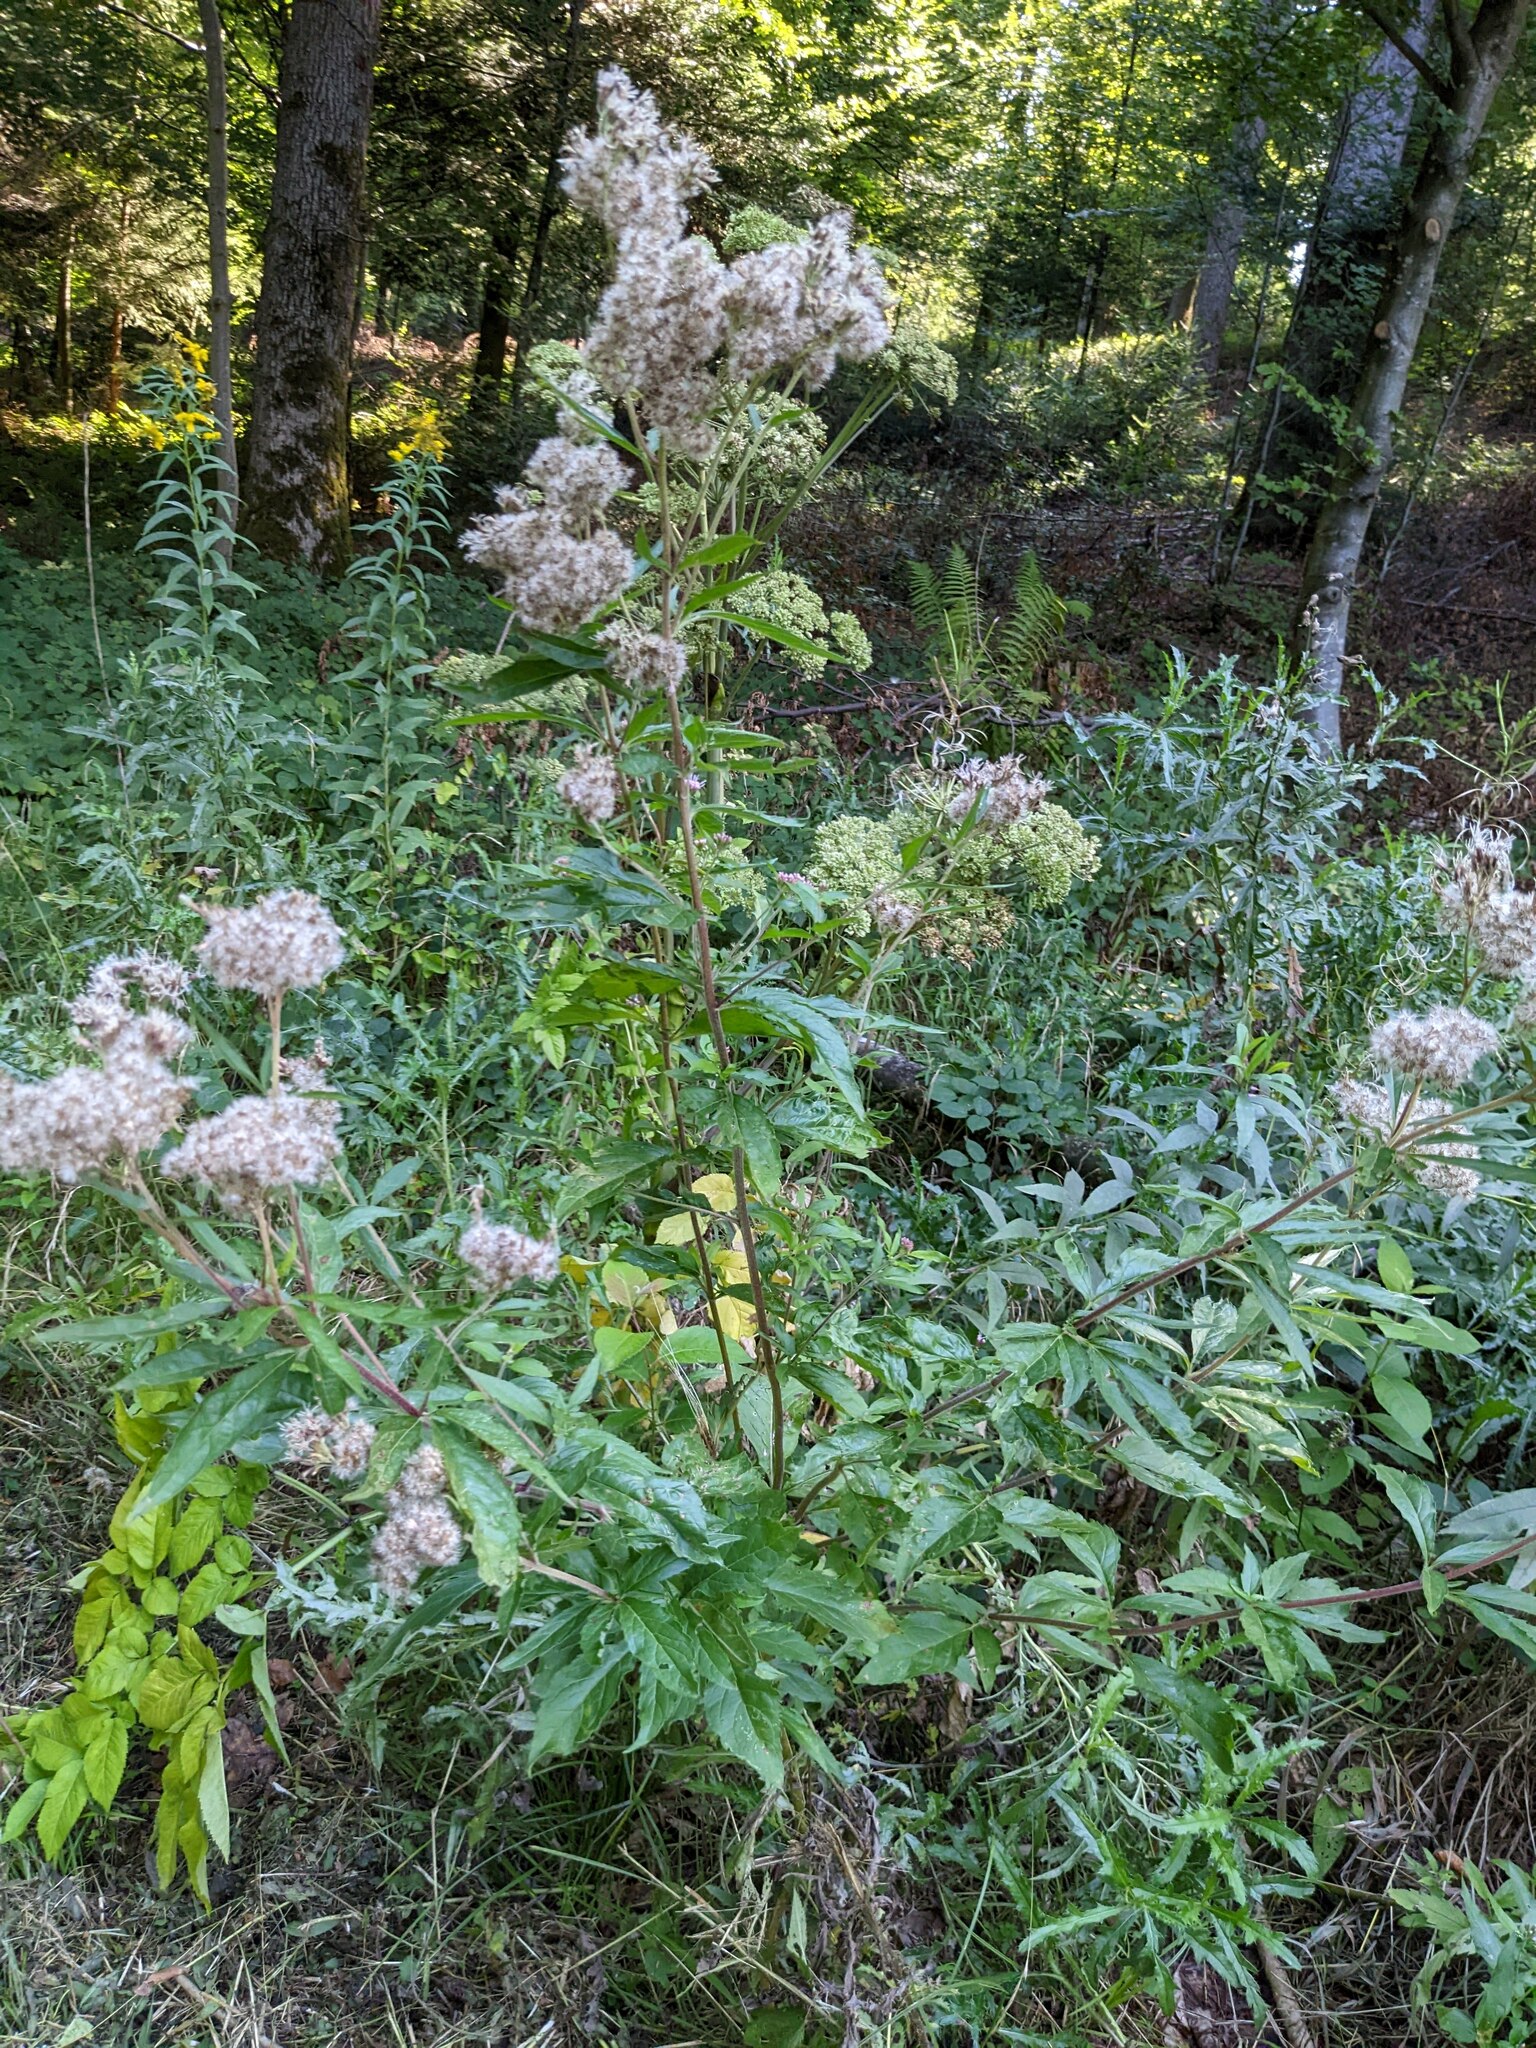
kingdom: Plantae
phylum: Tracheophyta
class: Magnoliopsida
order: Asterales
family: Asteraceae
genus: Eupatorium
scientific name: Eupatorium cannabinum
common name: Hemp-agrimony
